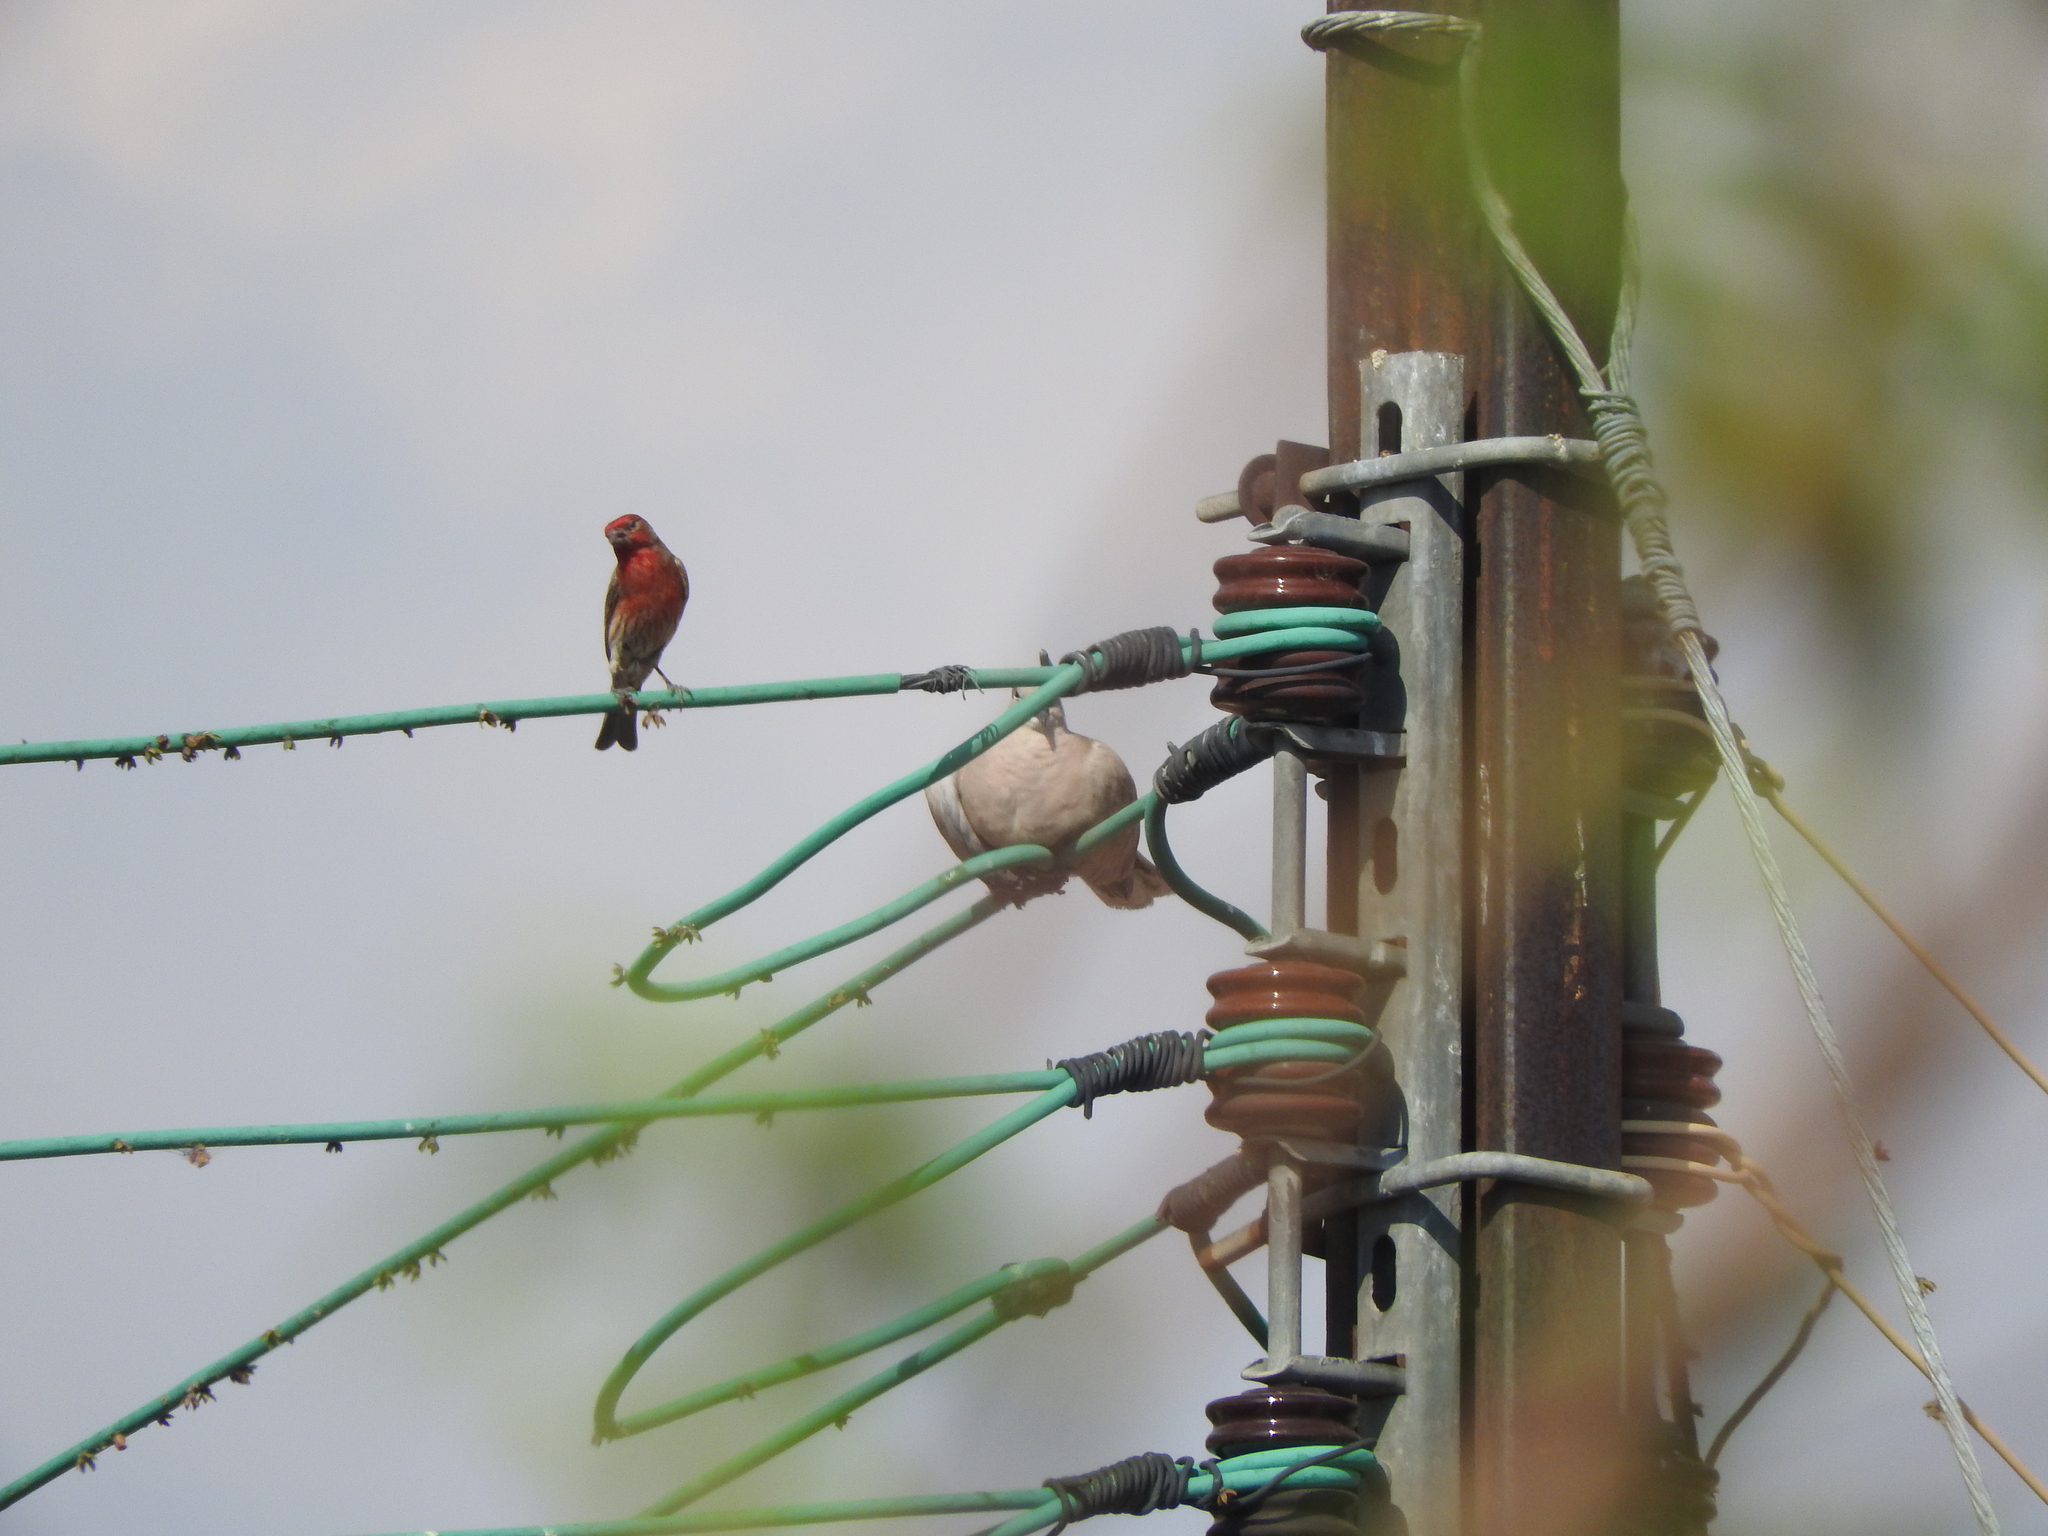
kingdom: Animalia
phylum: Chordata
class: Aves
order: Columbiformes
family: Columbidae
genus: Columbina
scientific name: Columbina inca
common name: Inca dove
